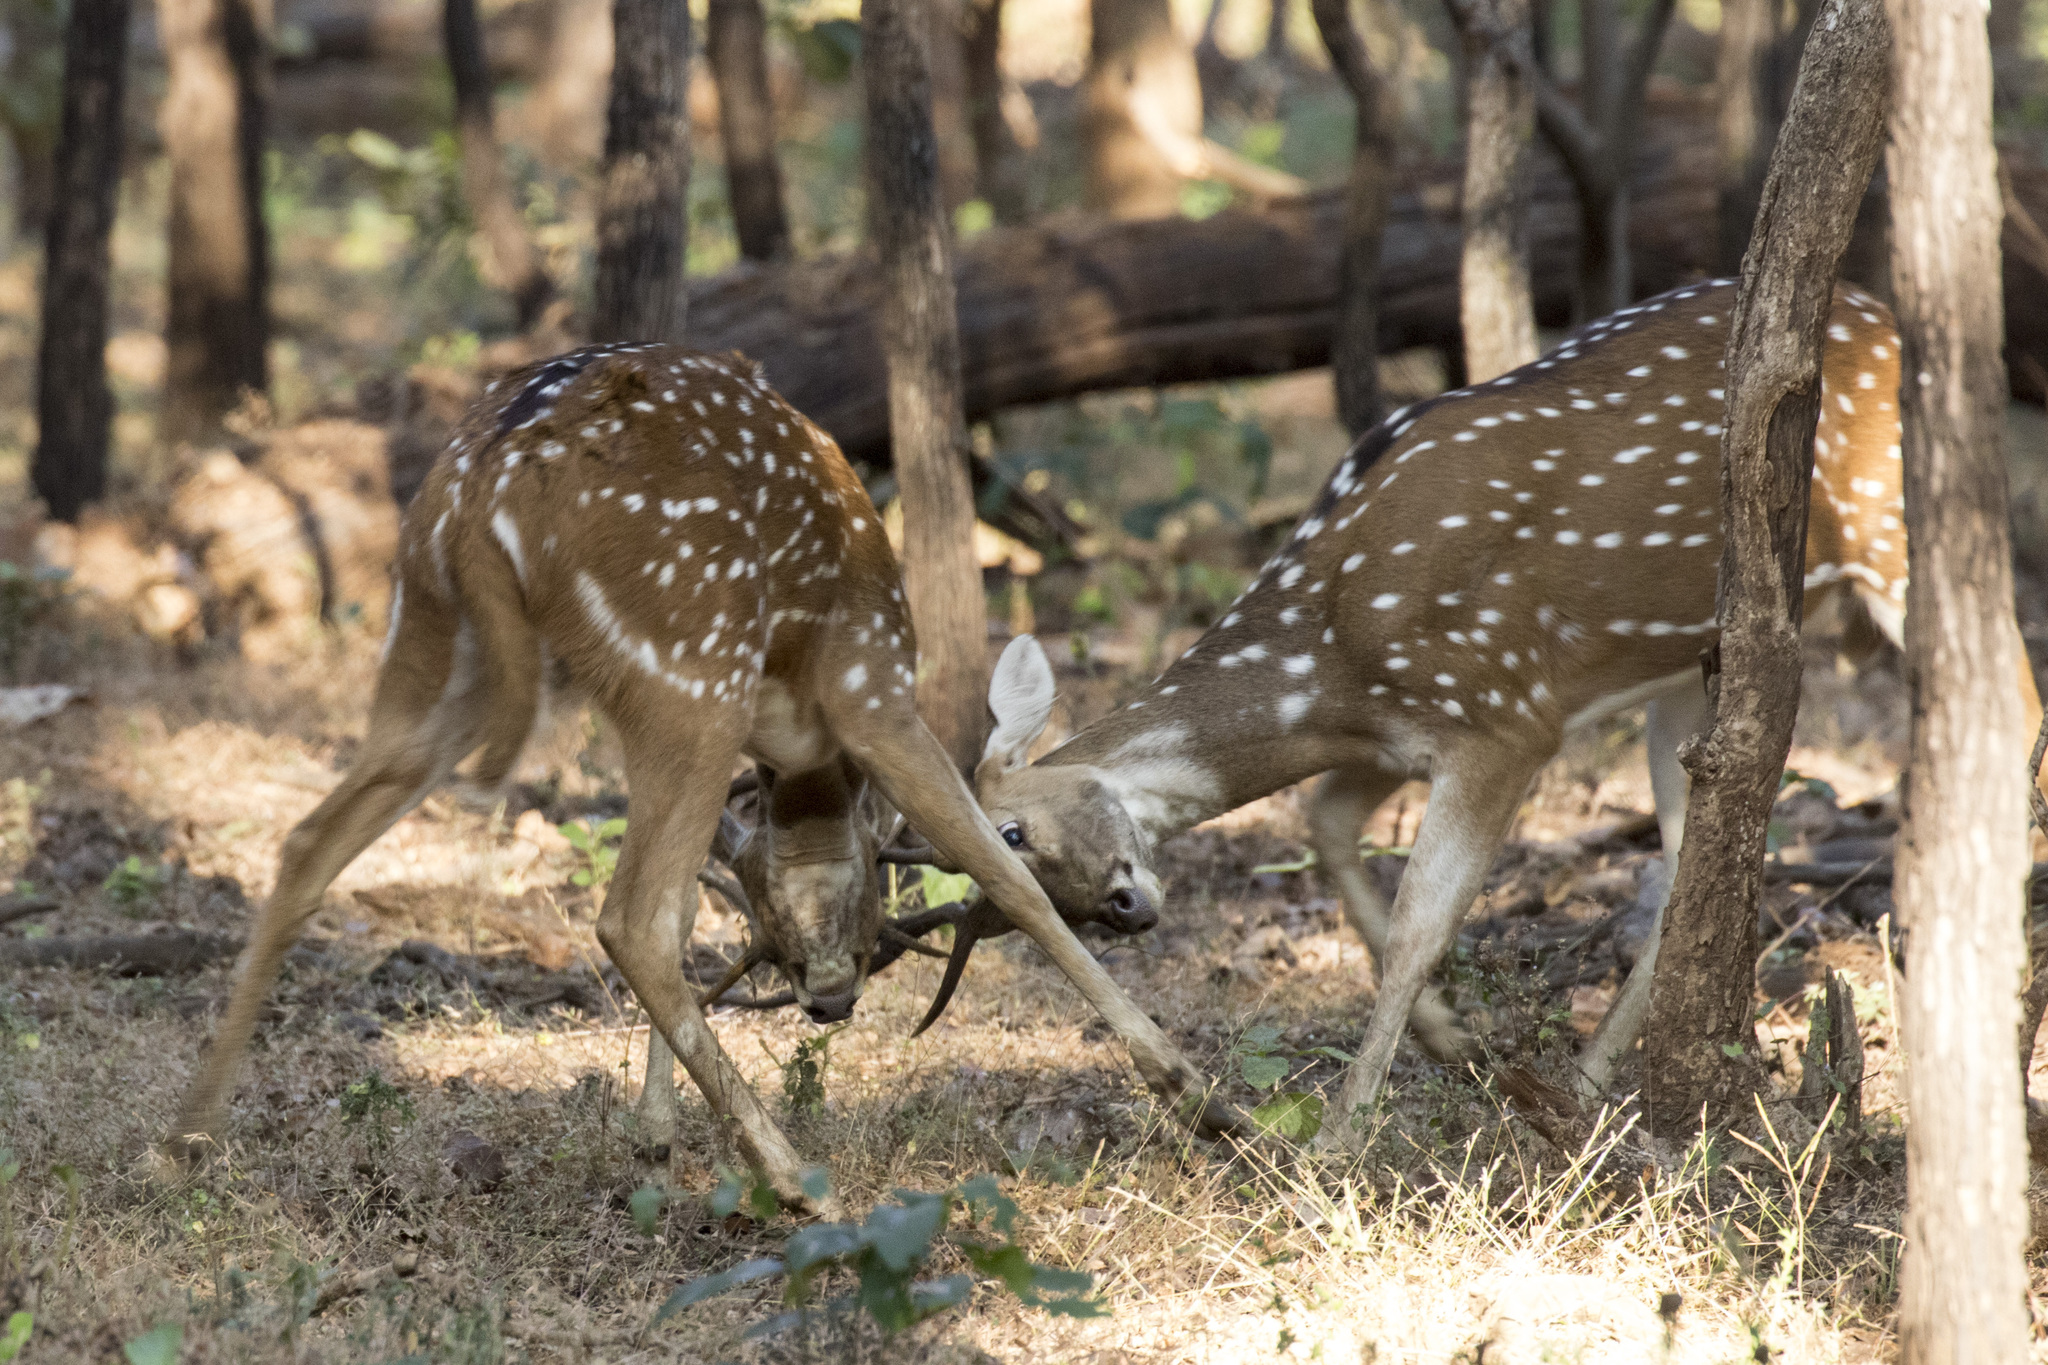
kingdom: Animalia
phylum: Chordata
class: Mammalia
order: Artiodactyla
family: Cervidae
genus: Axis
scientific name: Axis axis
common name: Chital
